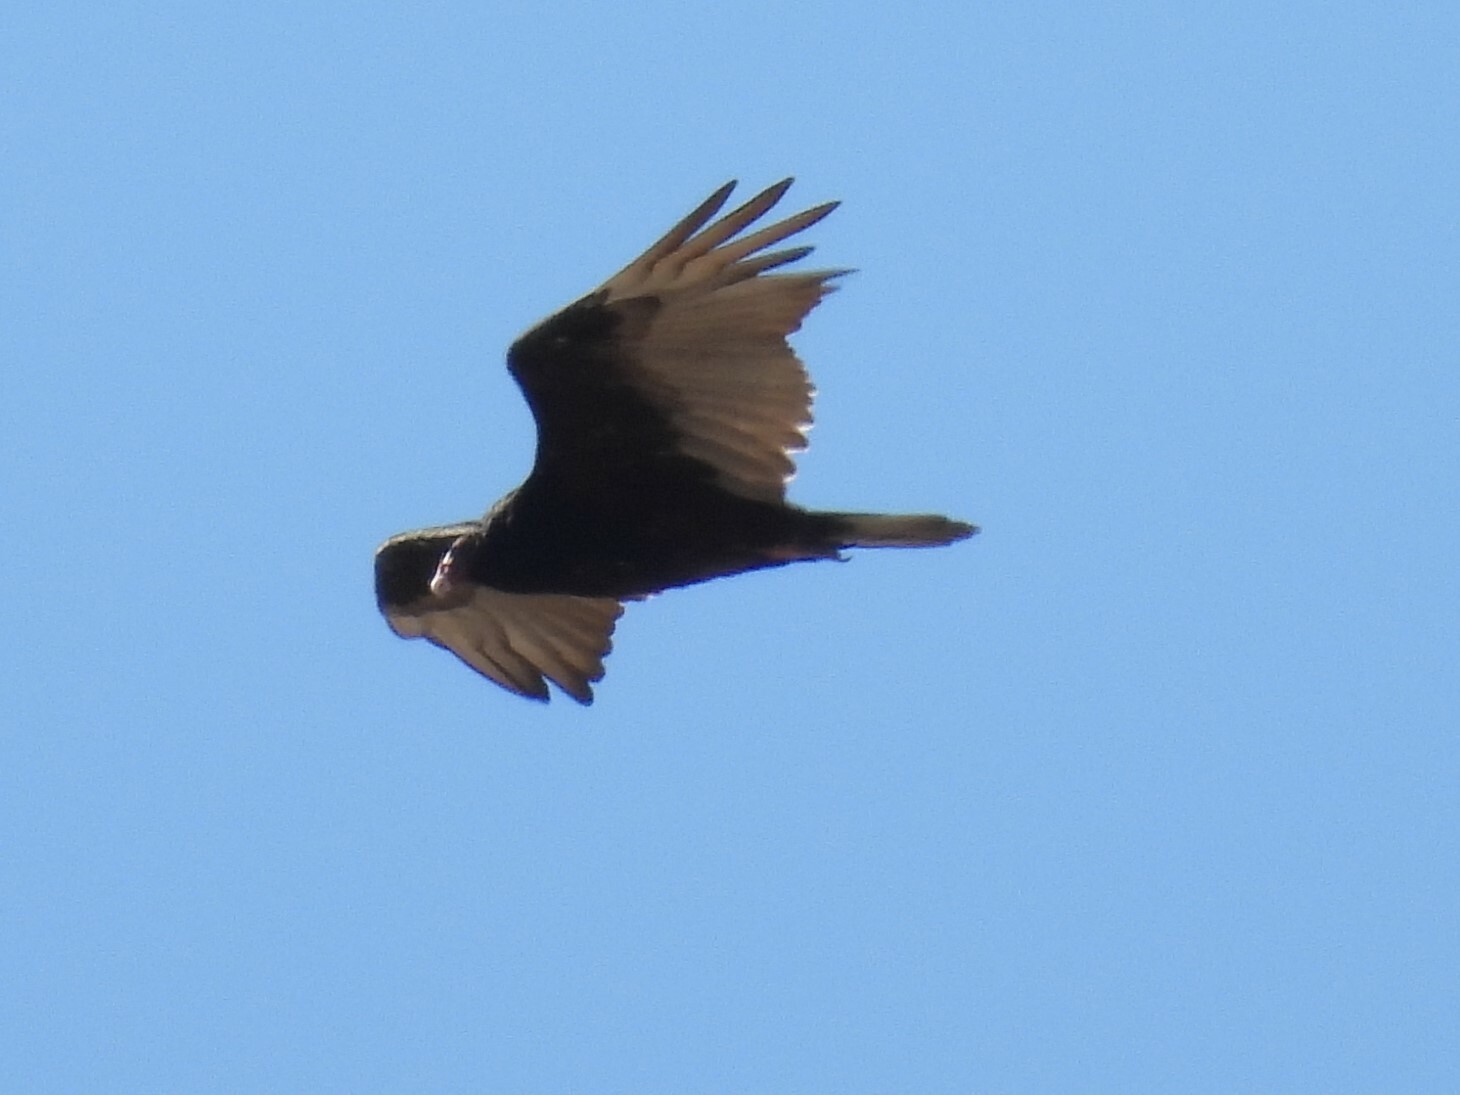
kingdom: Animalia
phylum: Chordata
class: Aves
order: Accipitriformes
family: Cathartidae
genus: Cathartes
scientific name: Cathartes aura
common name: Turkey vulture
